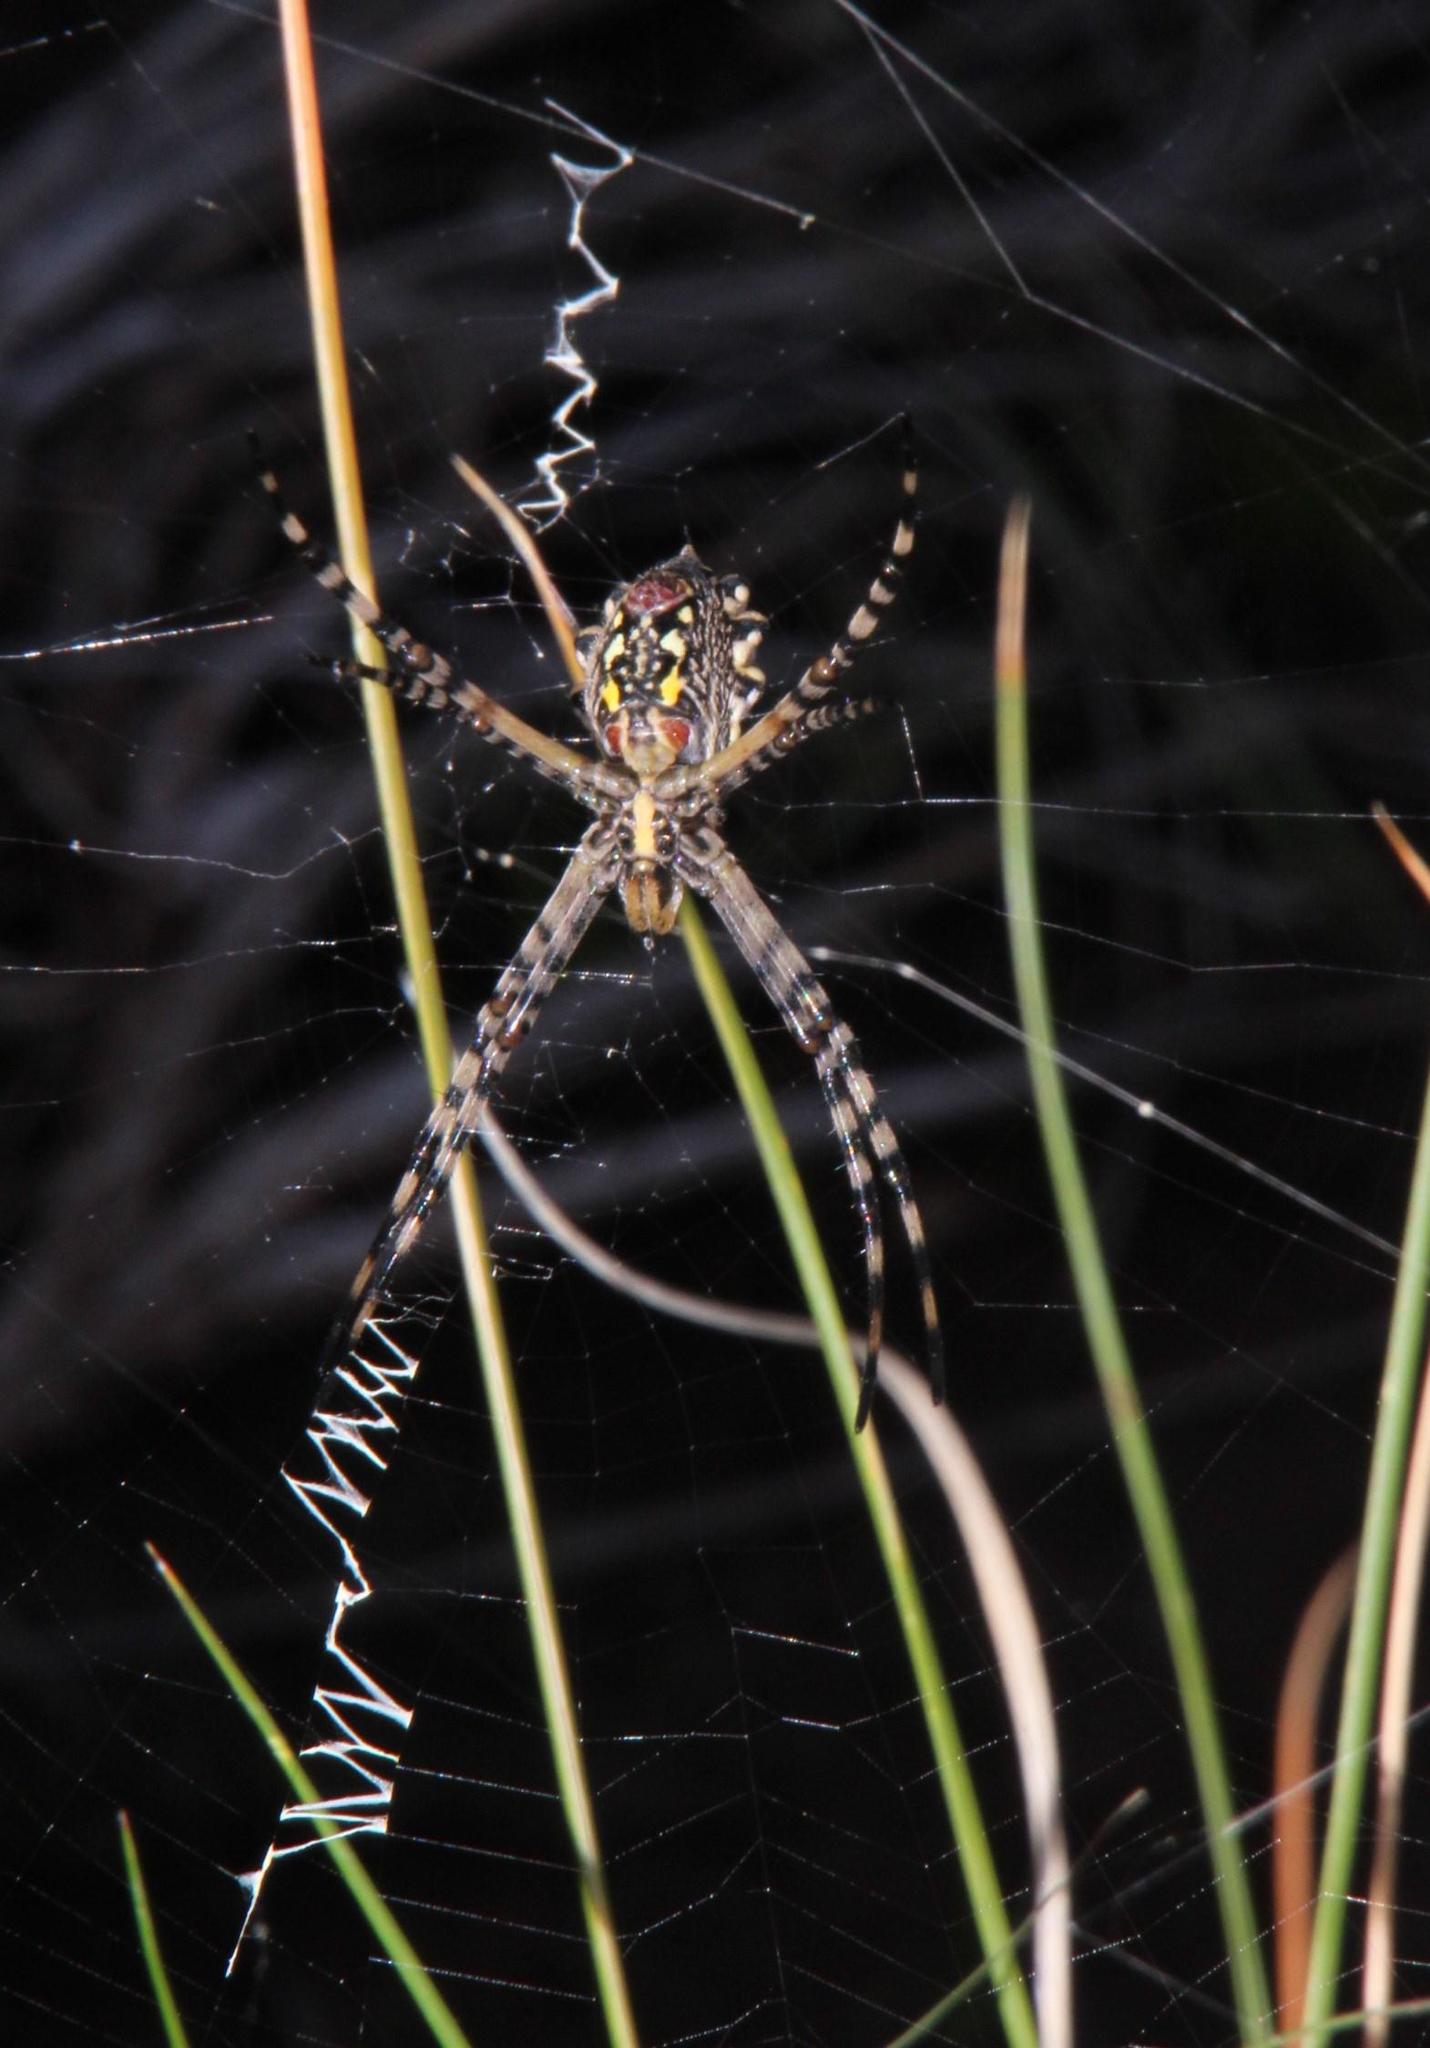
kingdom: Animalia
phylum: Arthropoda
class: Arachnida
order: Araneae
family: Araneidae
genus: Argiope
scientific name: Argiope australis
